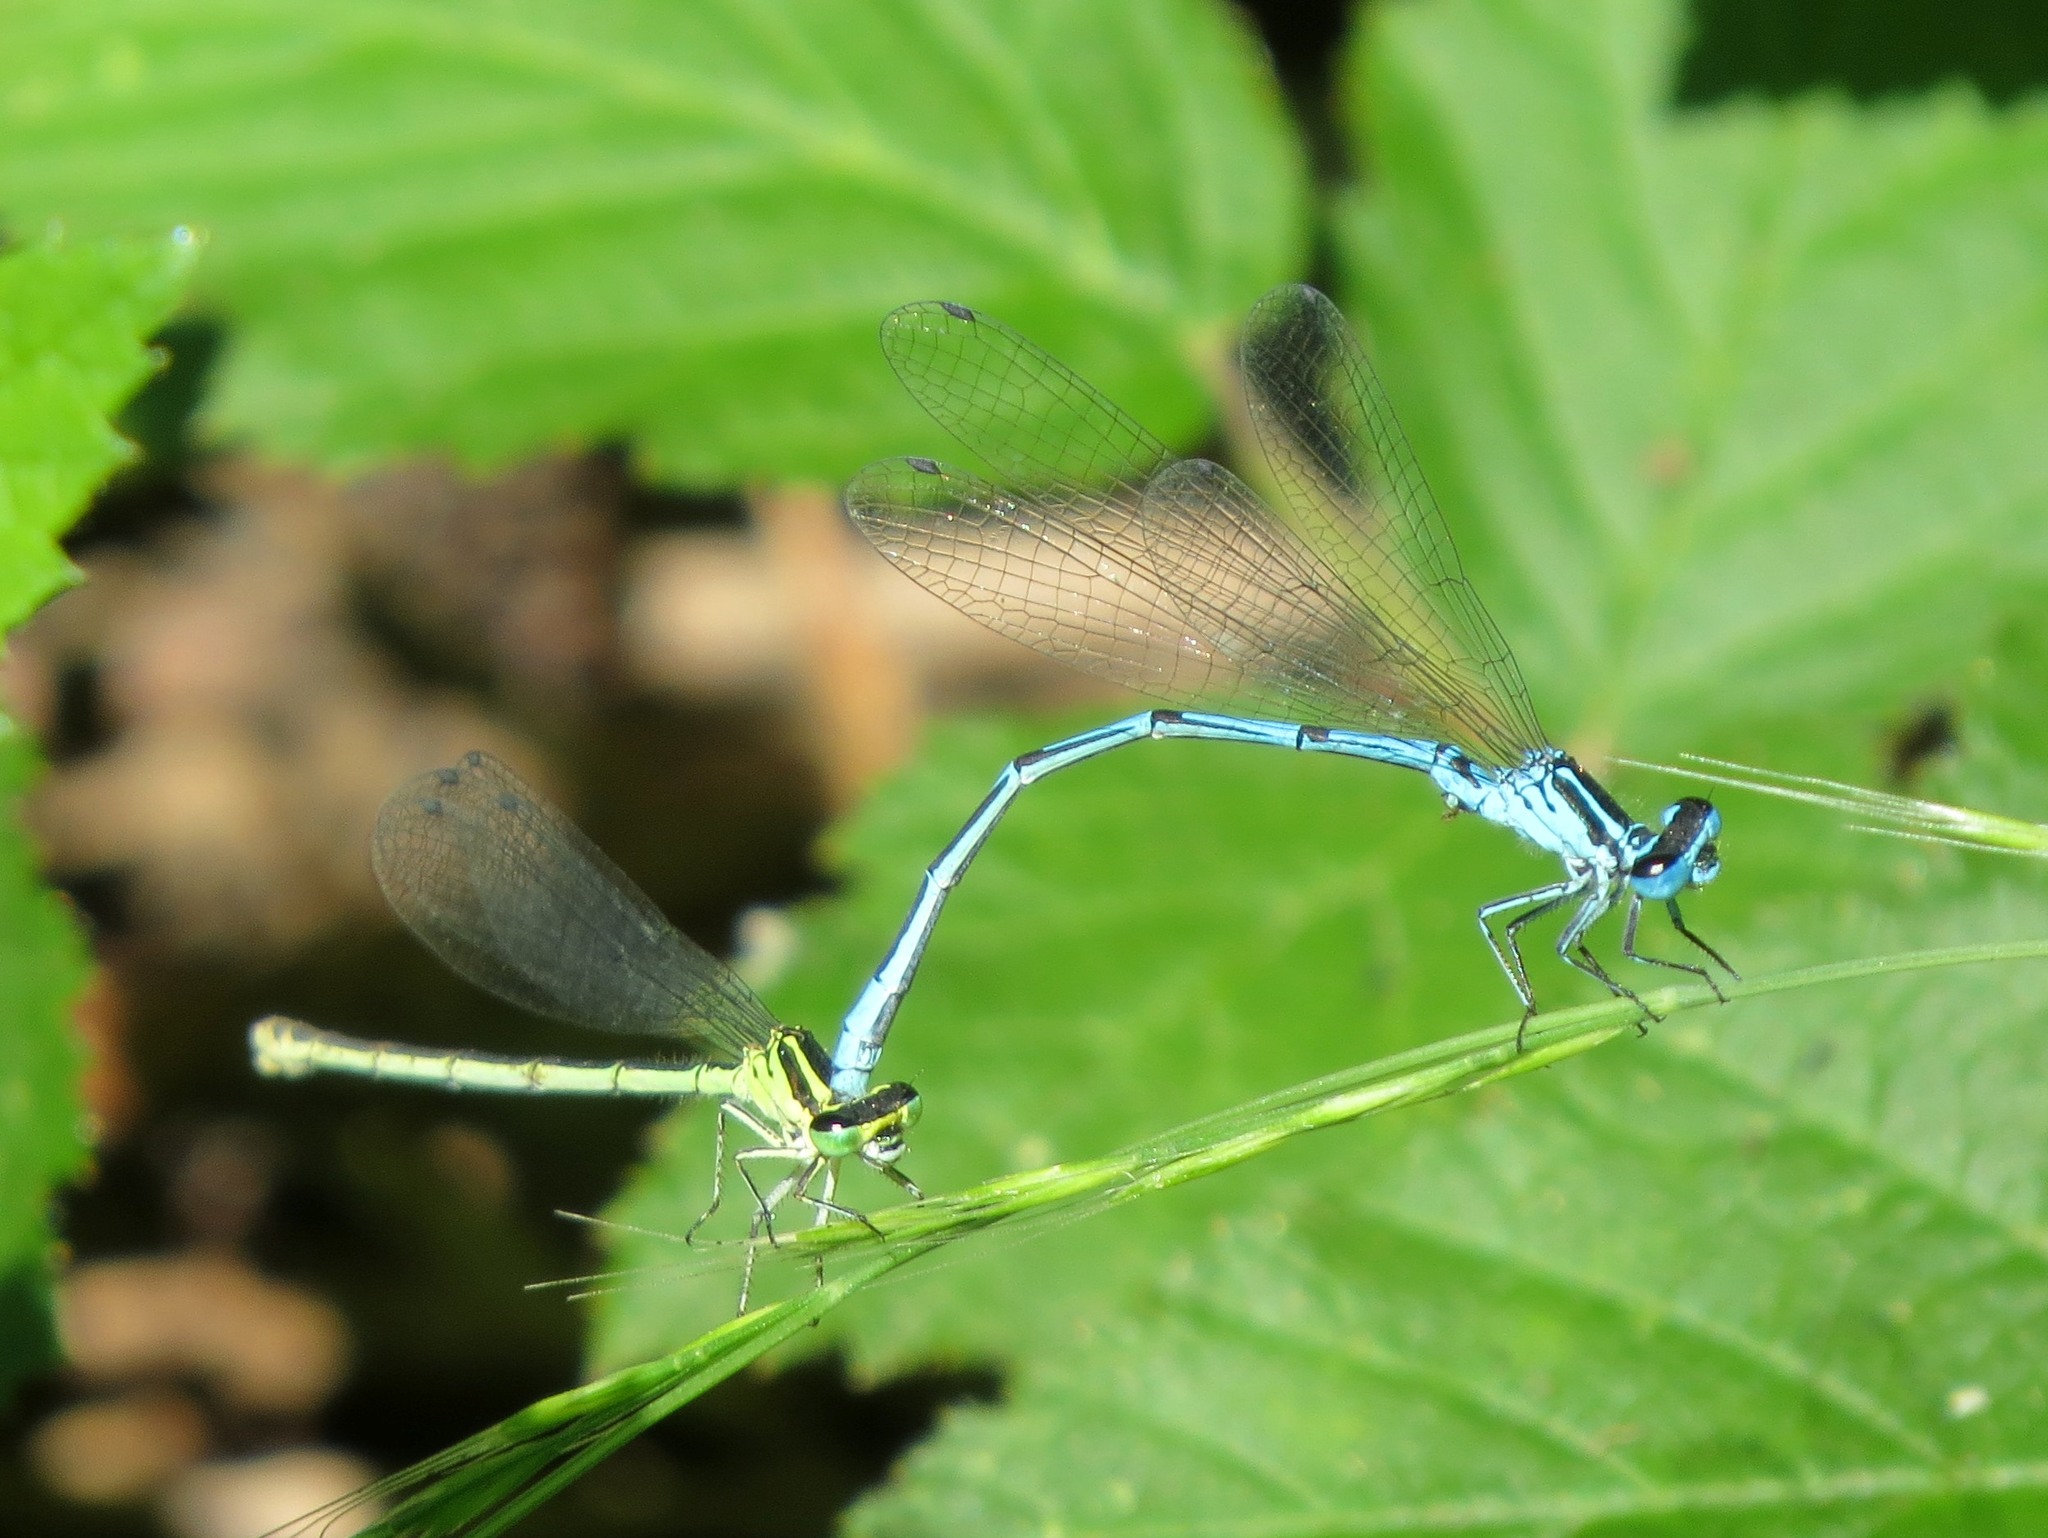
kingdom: Animalia
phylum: Arthropoda
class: Insecta
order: Odonata
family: Coenagrionidae
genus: Coenagrion
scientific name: Coenagrion puella
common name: Azure damselfly
